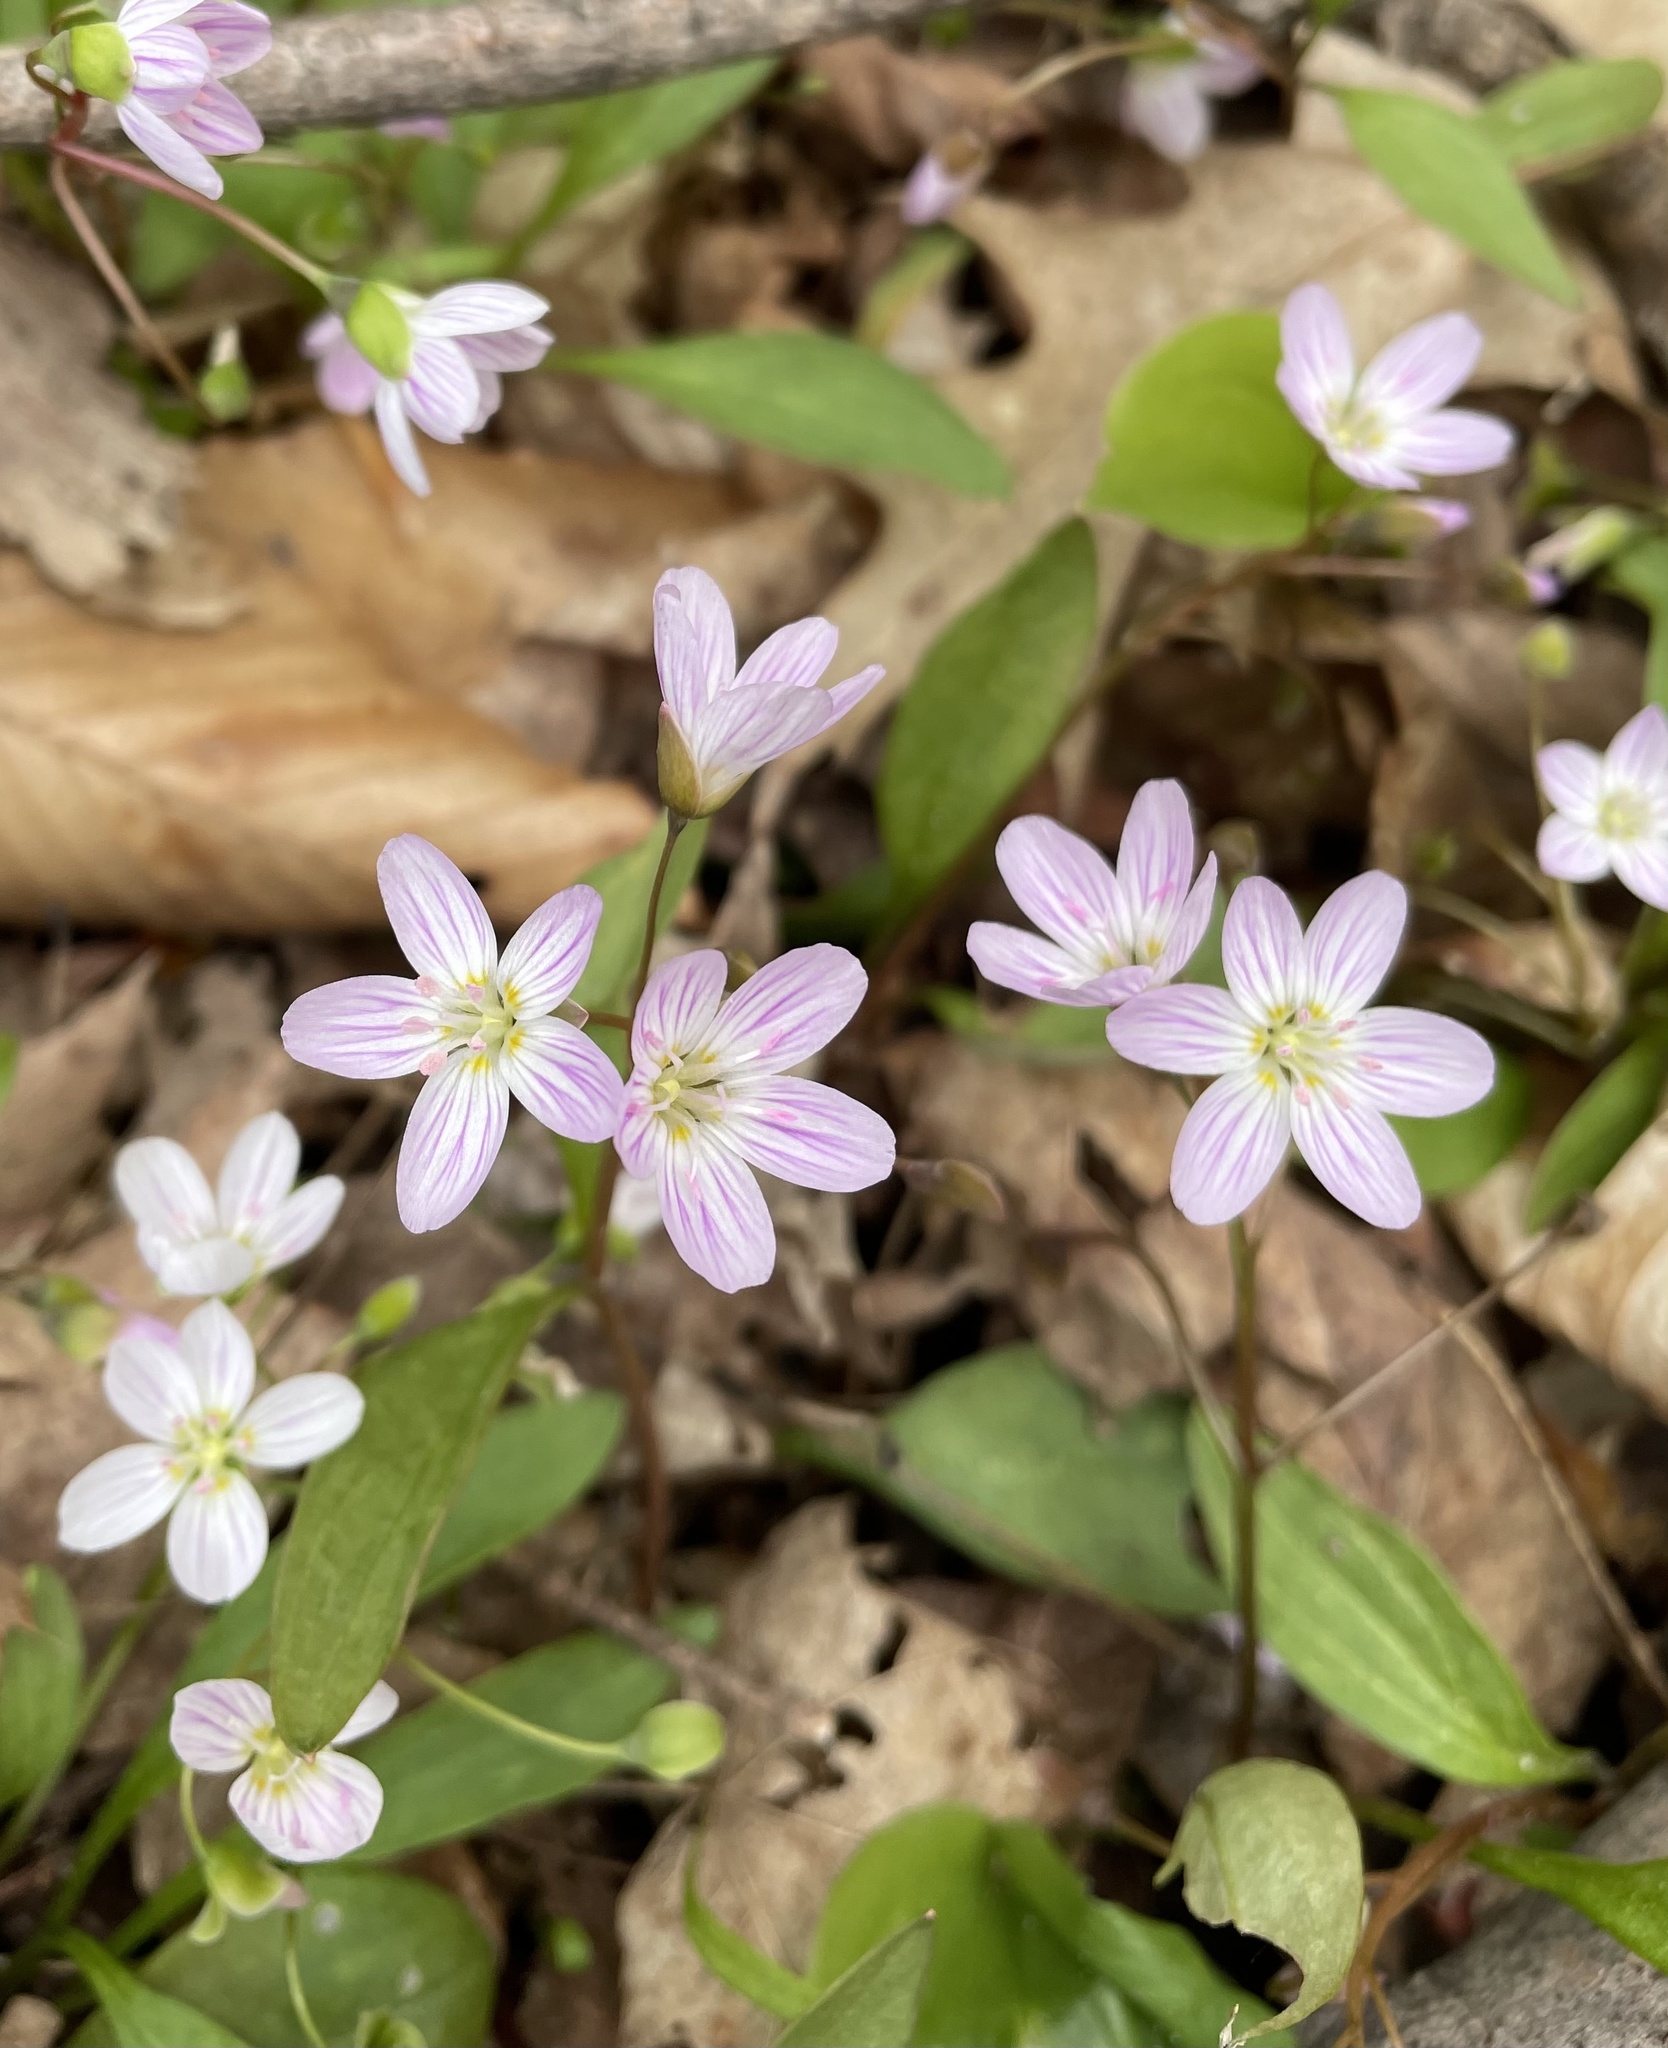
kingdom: Plantae
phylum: Tracheophyta
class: Magnoliopsida
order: Caryophyllales
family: Montiaceae
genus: Claytonia
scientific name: Claytonia caroliniana
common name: Carolina spring beauty
